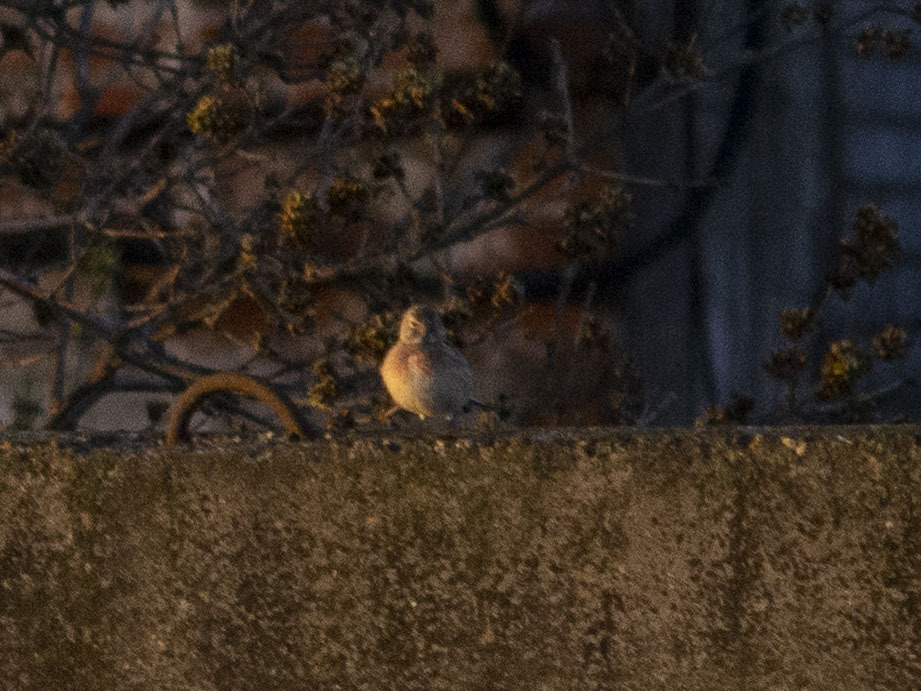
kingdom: Animalia
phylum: Chordata
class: Aves
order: Passeriformes
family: Fringillidae
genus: Linaria
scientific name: Linaria cannabina
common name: Common linnet
